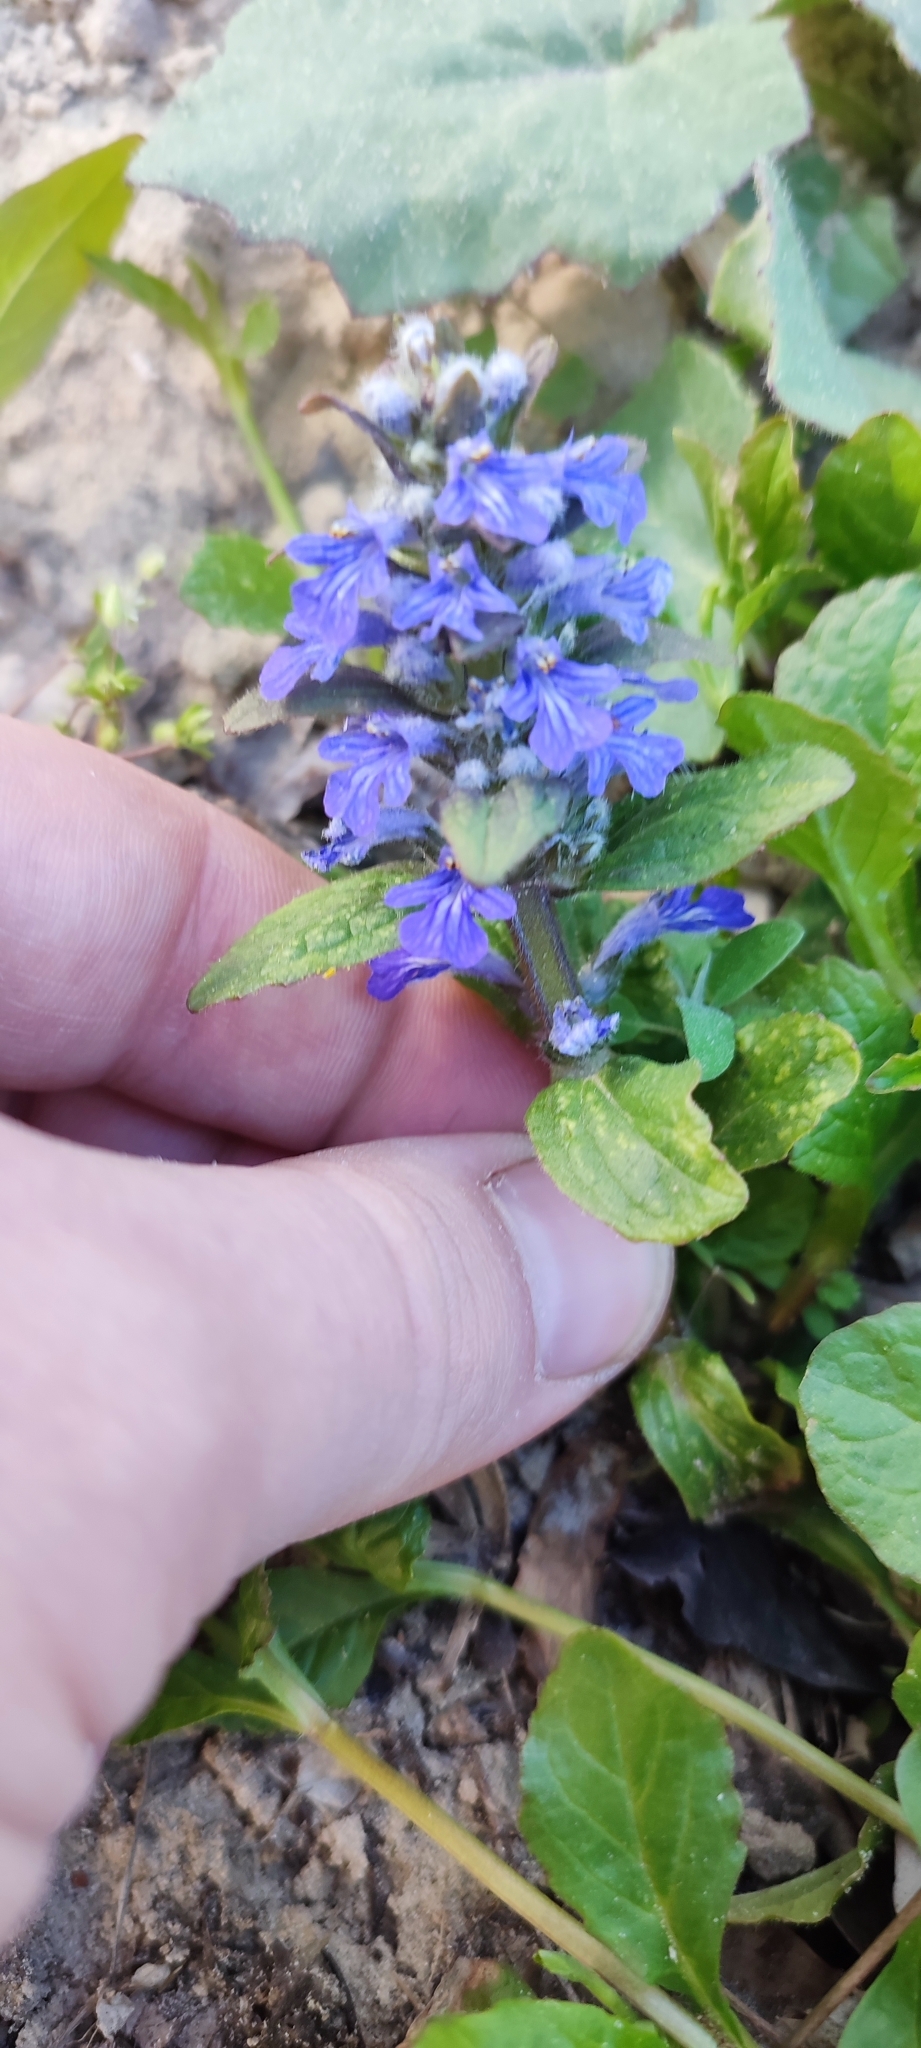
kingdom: Plantae
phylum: Tracheophyta
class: Magnoliopsida
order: Lamiales
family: Lamiaceae
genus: Ajuga
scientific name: Ajuga reptans
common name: Bugle
